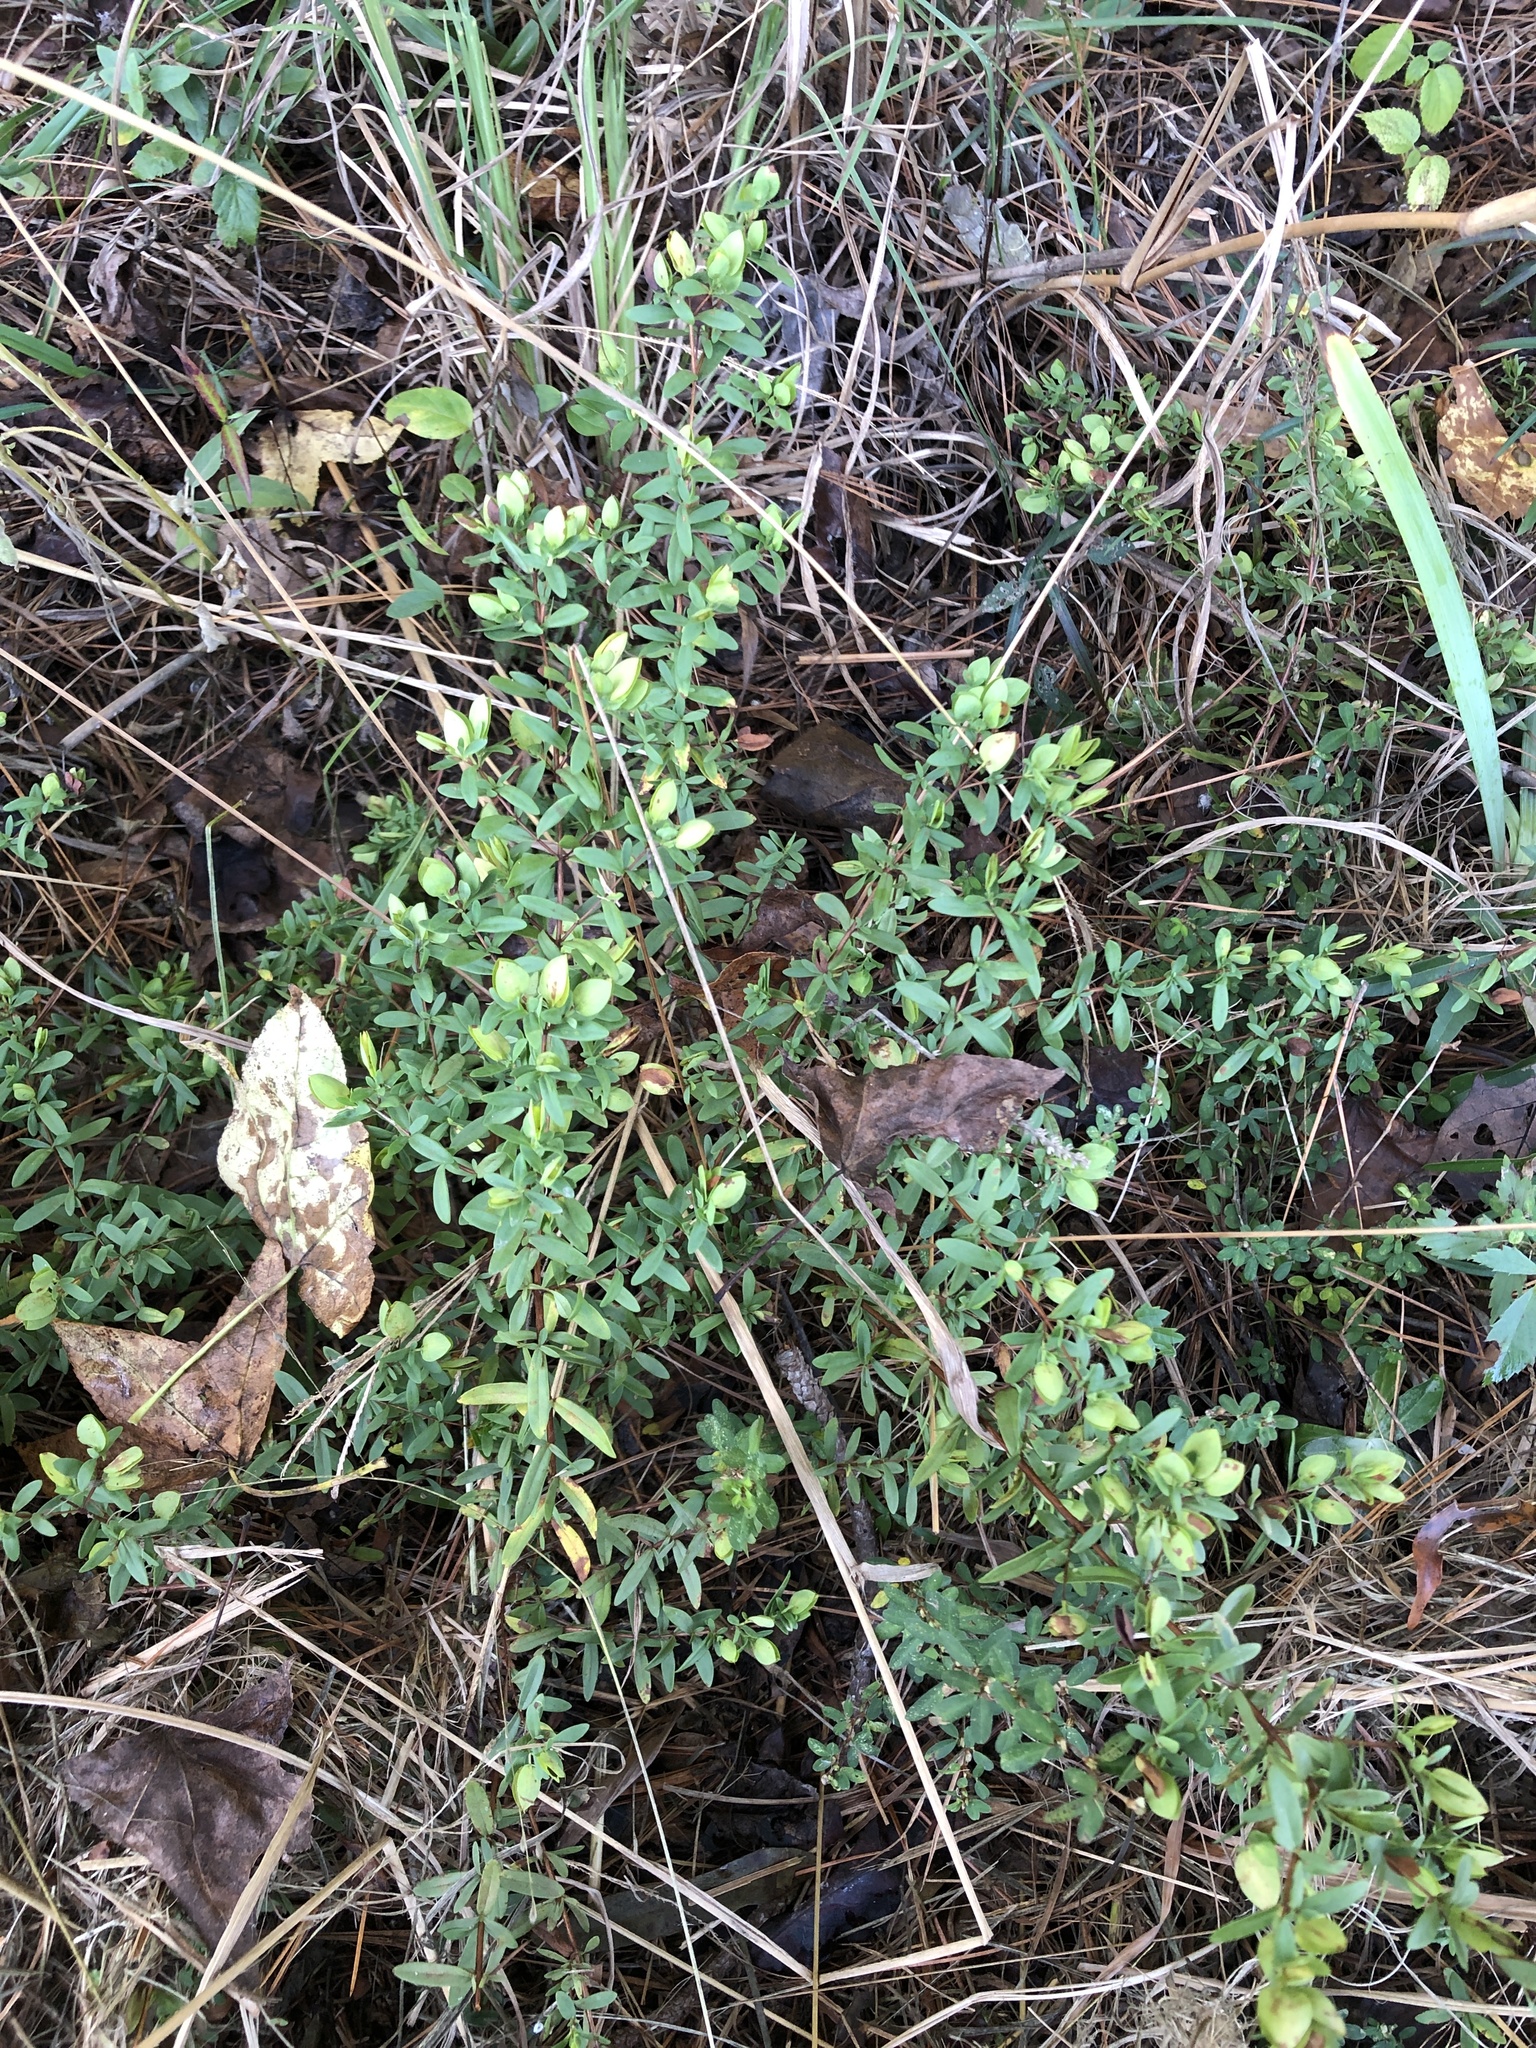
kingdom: Plantae
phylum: Tracheophyta
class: Magnoliopsida
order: Malpighiales
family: Hypericaceae
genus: Hypericum
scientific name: Hypericum hypericoides
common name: St. andrew's cross
